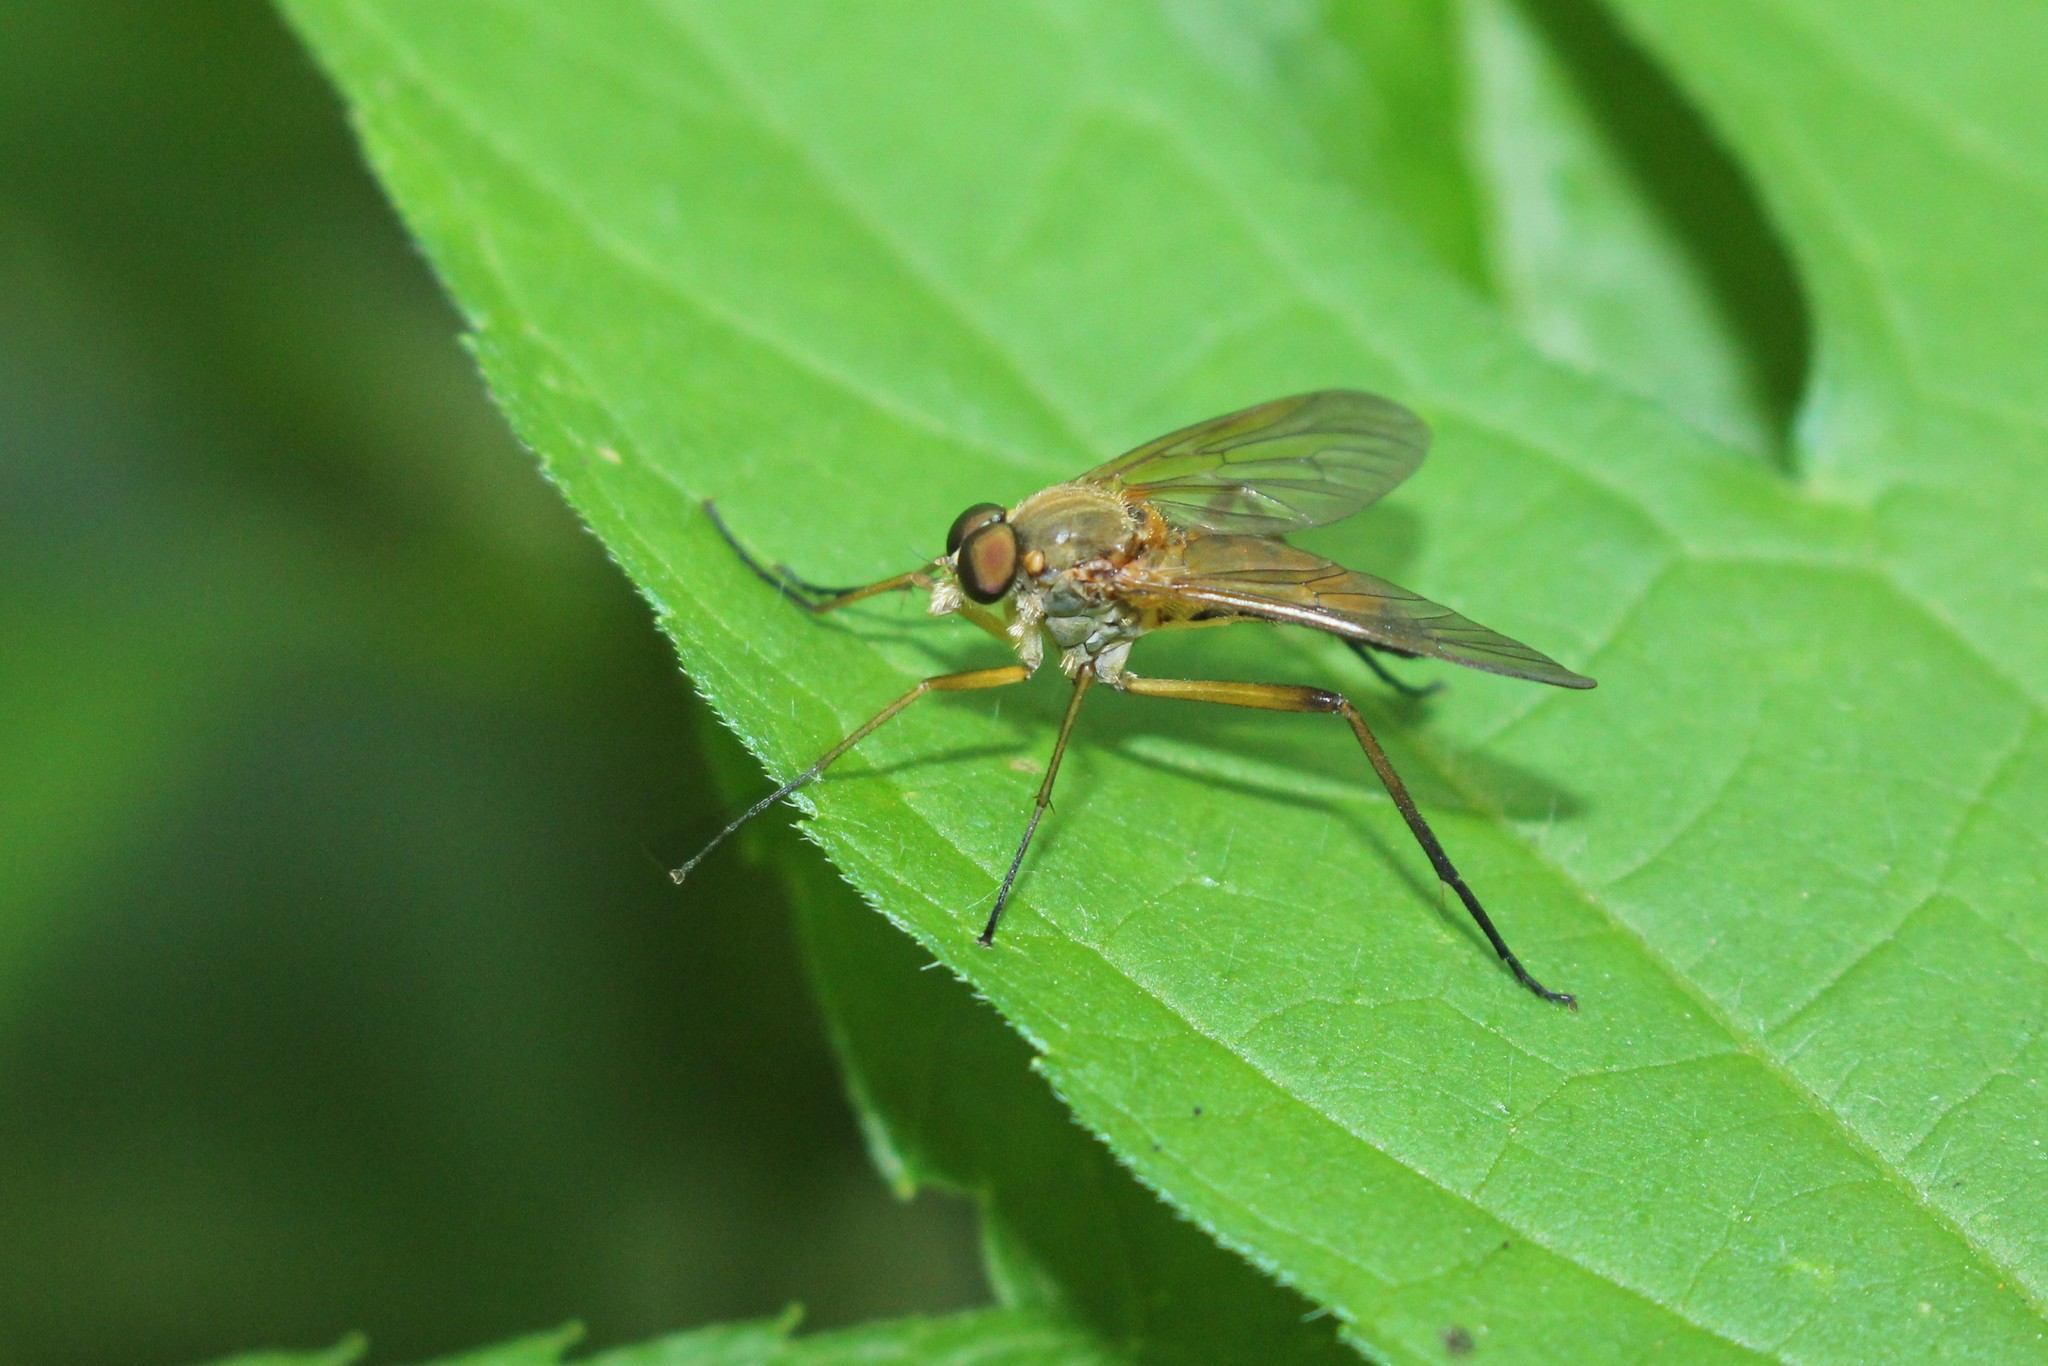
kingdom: Animalia
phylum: Arthropoda
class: Insecta
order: Diptera
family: Rhagionidae
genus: Rhagio
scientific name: Rhagio tringaria
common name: Marsh snipefly
